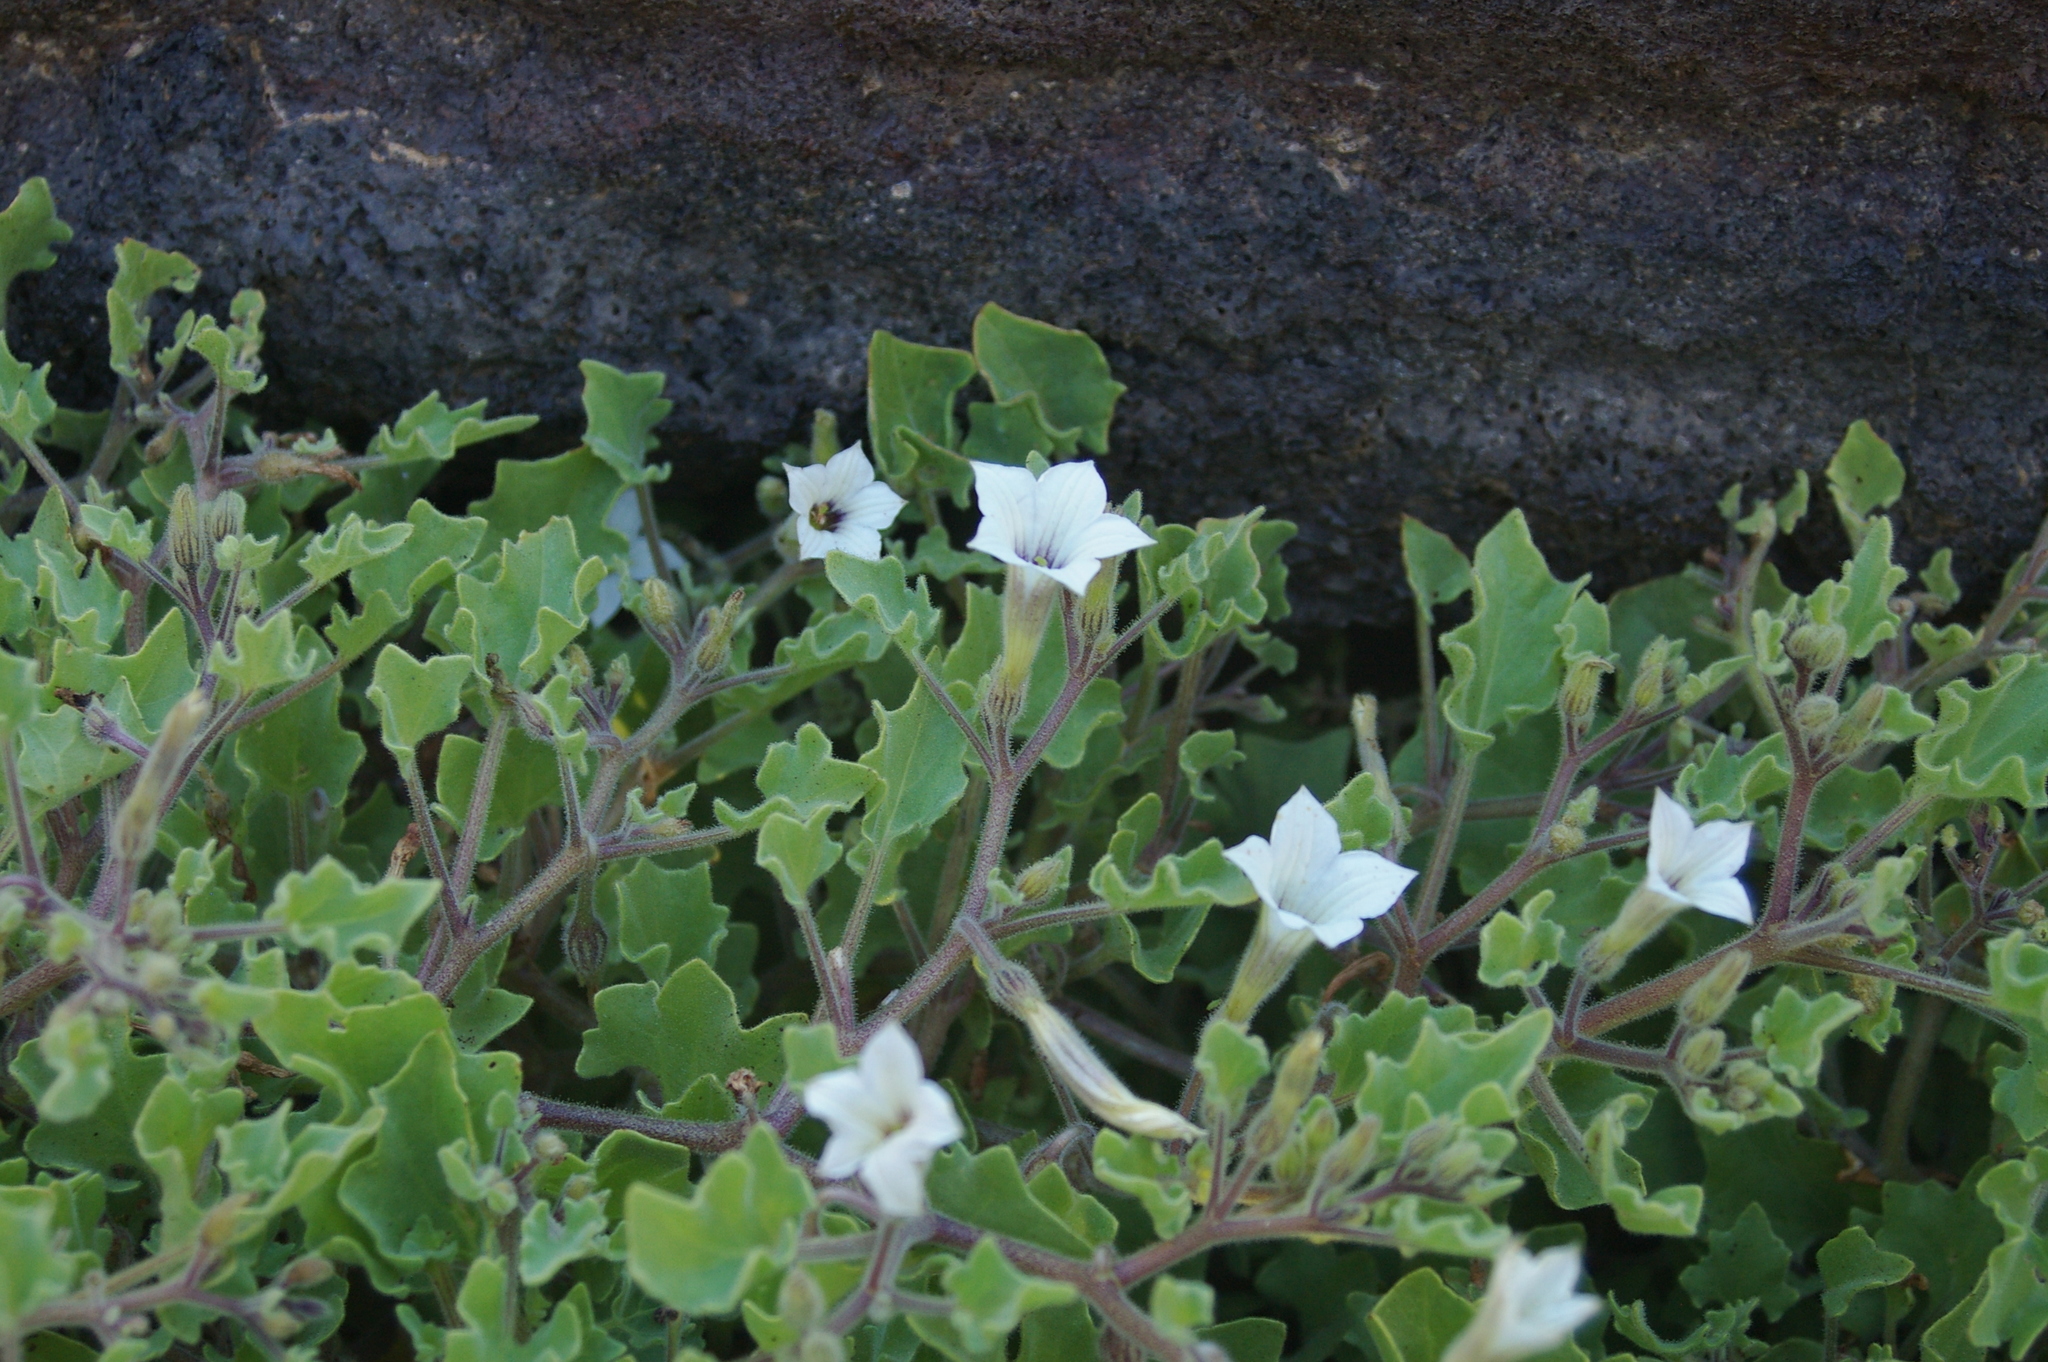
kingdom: Plantae
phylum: Tracheophyta
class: Magnoliopsida
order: Solanales
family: Solanaceae
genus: Exodeconus
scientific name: Exodeconus miersii
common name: Galapagos shore petunia
